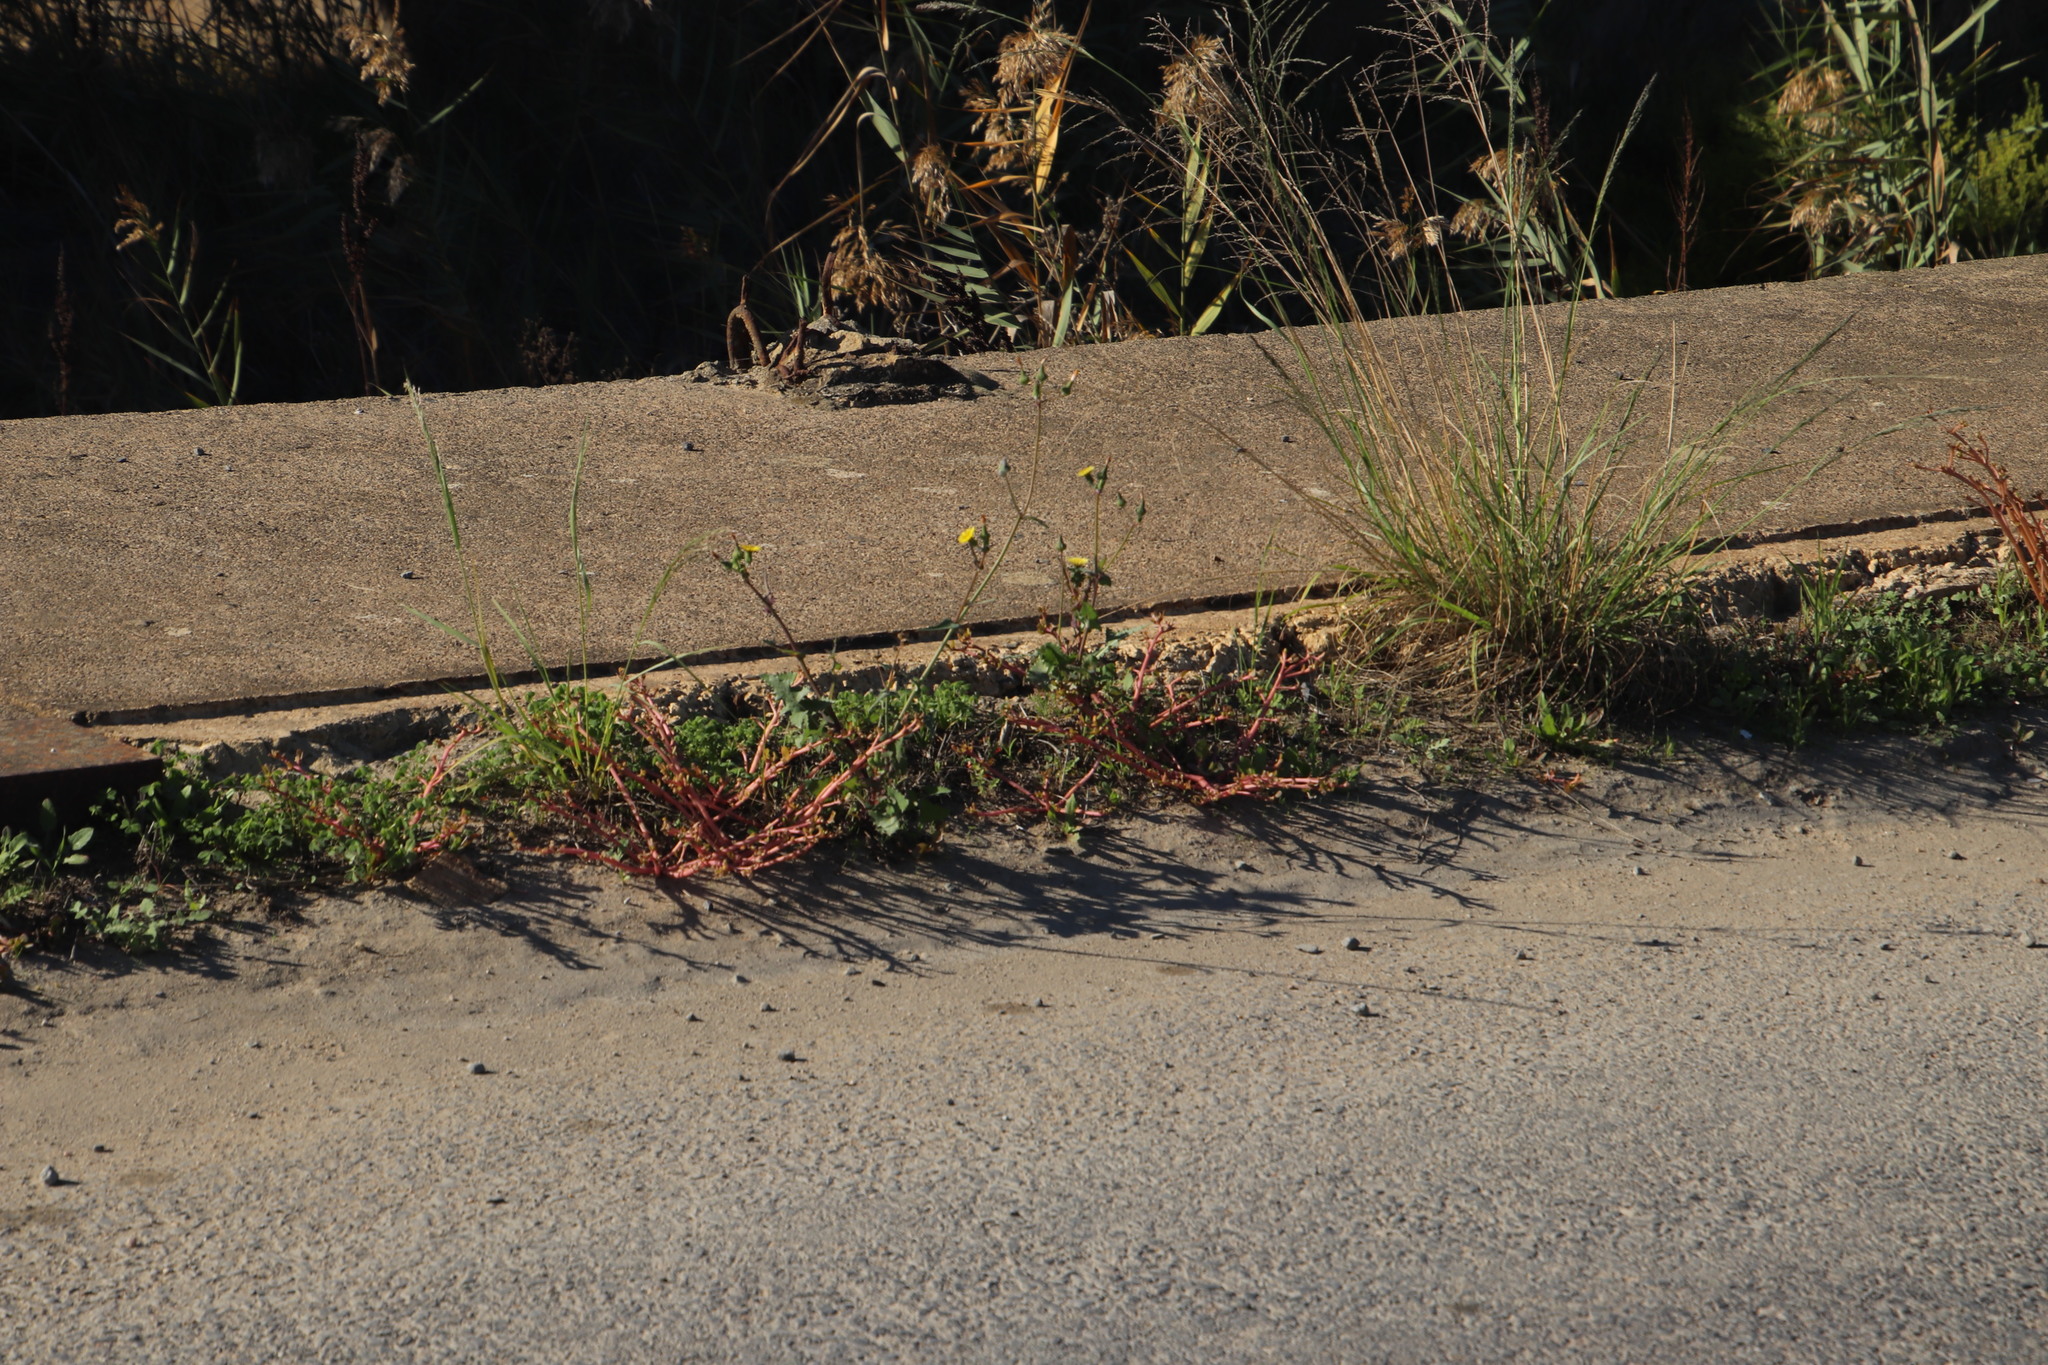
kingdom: Plantae
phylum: Tracheophyta
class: Magnoliopsida
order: Caryophyllales
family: Portulacaceae
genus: Portulaca
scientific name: Portulaca oleracea
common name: Common purslane
